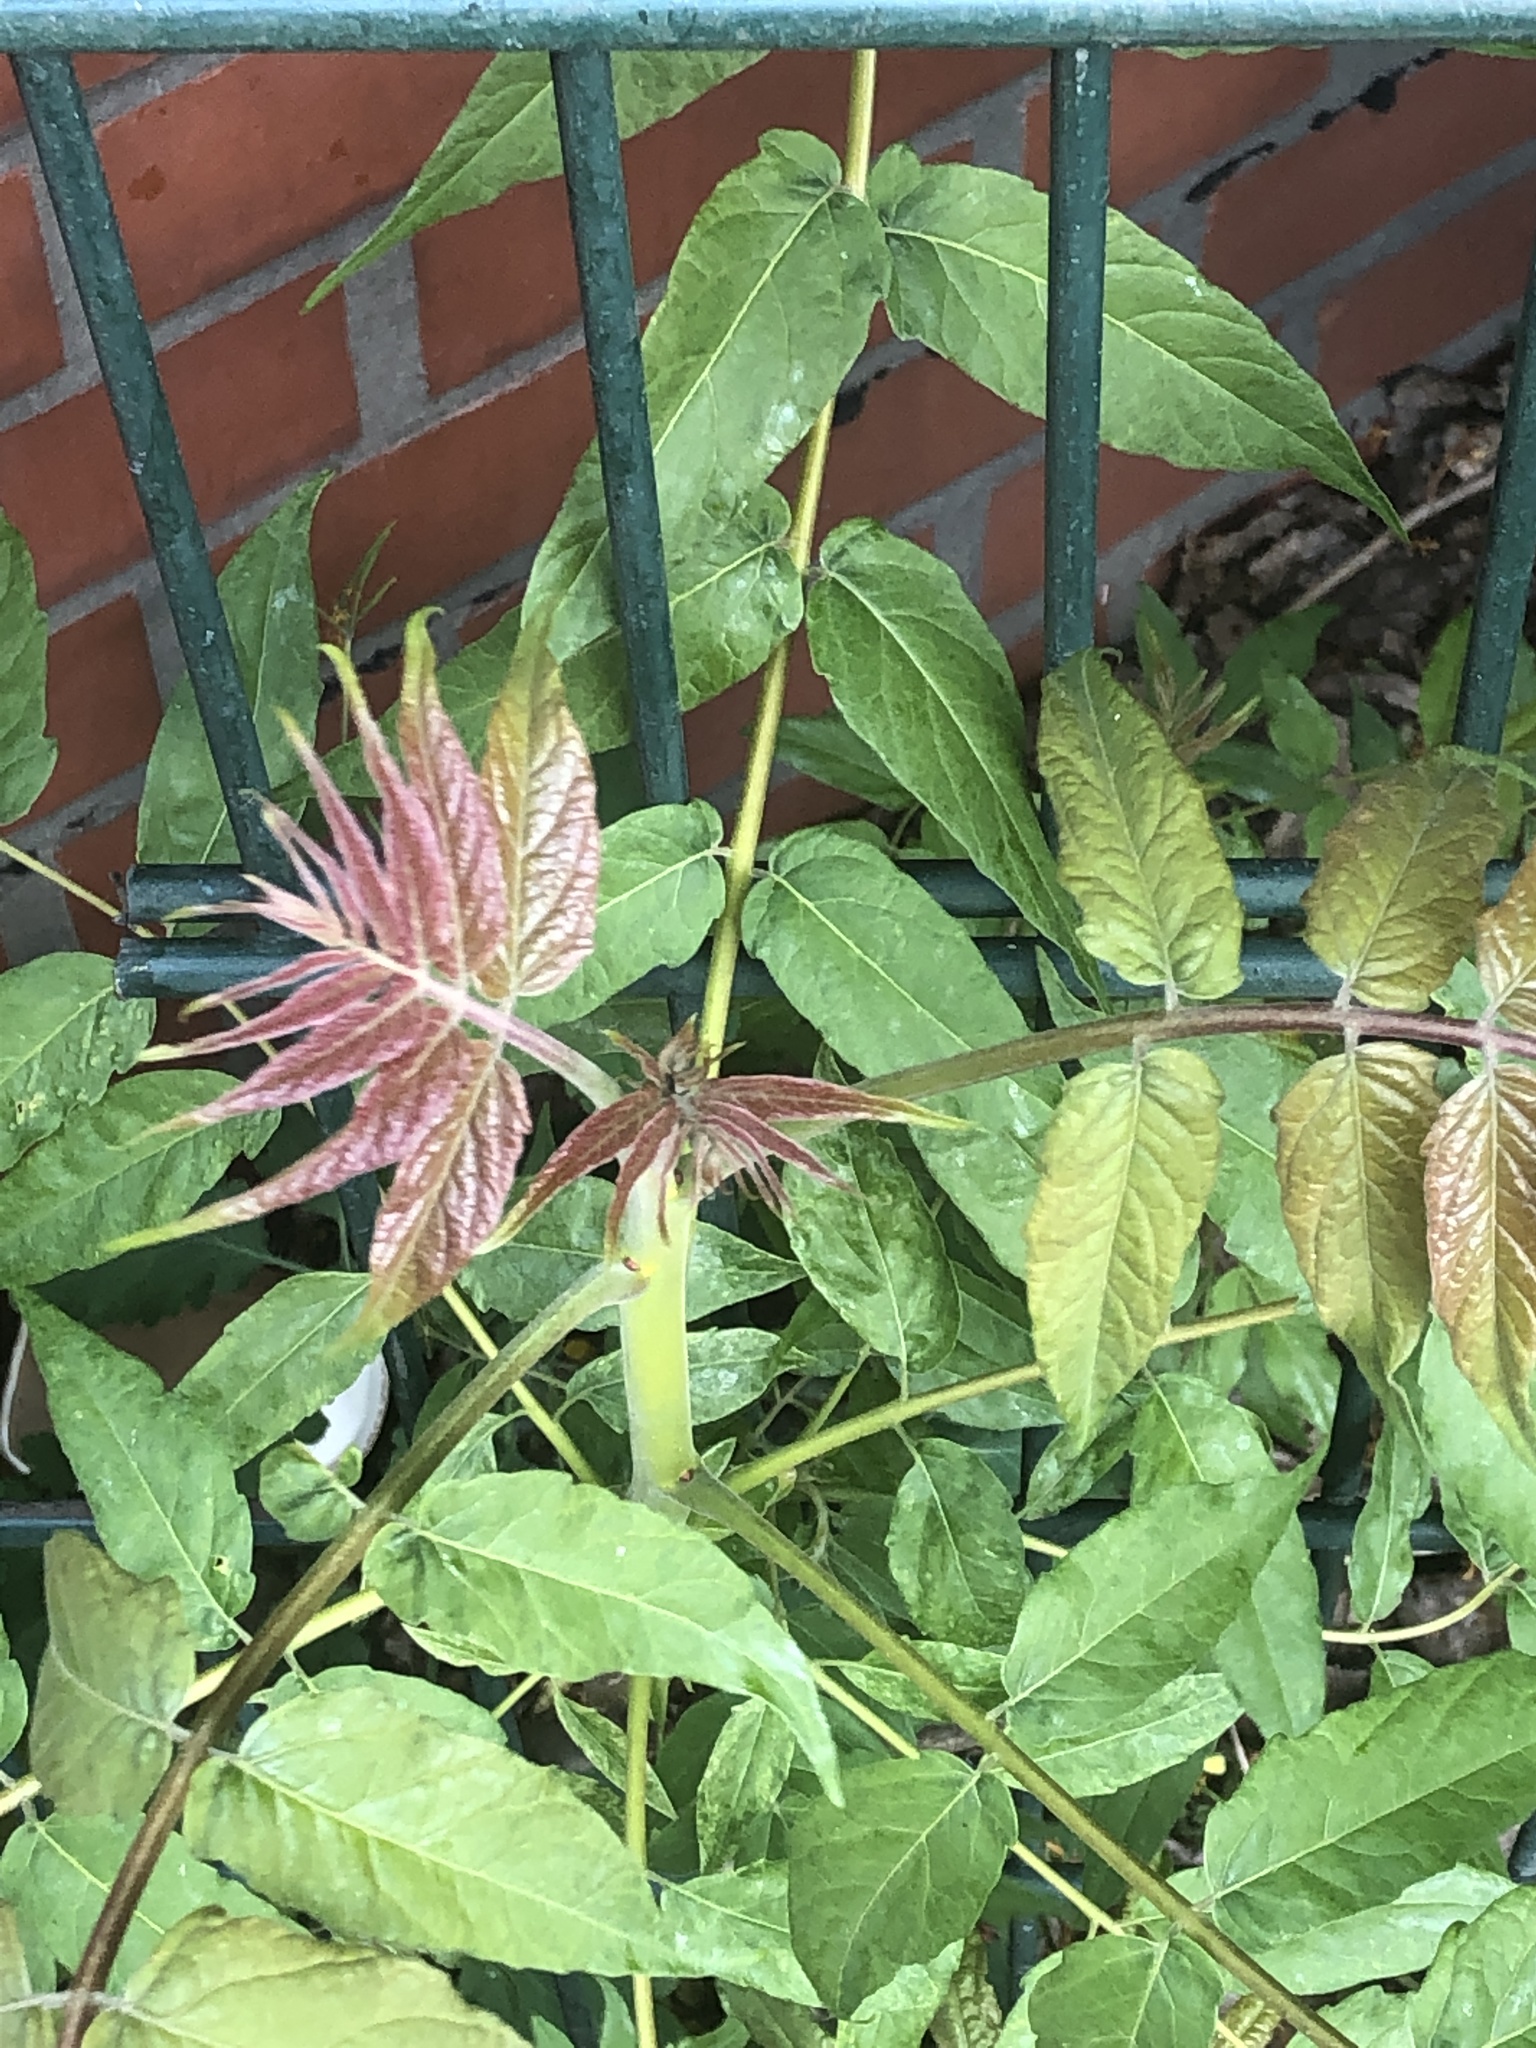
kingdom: Plantae
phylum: Tracheophyta
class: Magnoliopsida
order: Sapindales
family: Simaroubaceae
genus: Ailanthus
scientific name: Ailanthus altissima
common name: Tree-of-heaven
